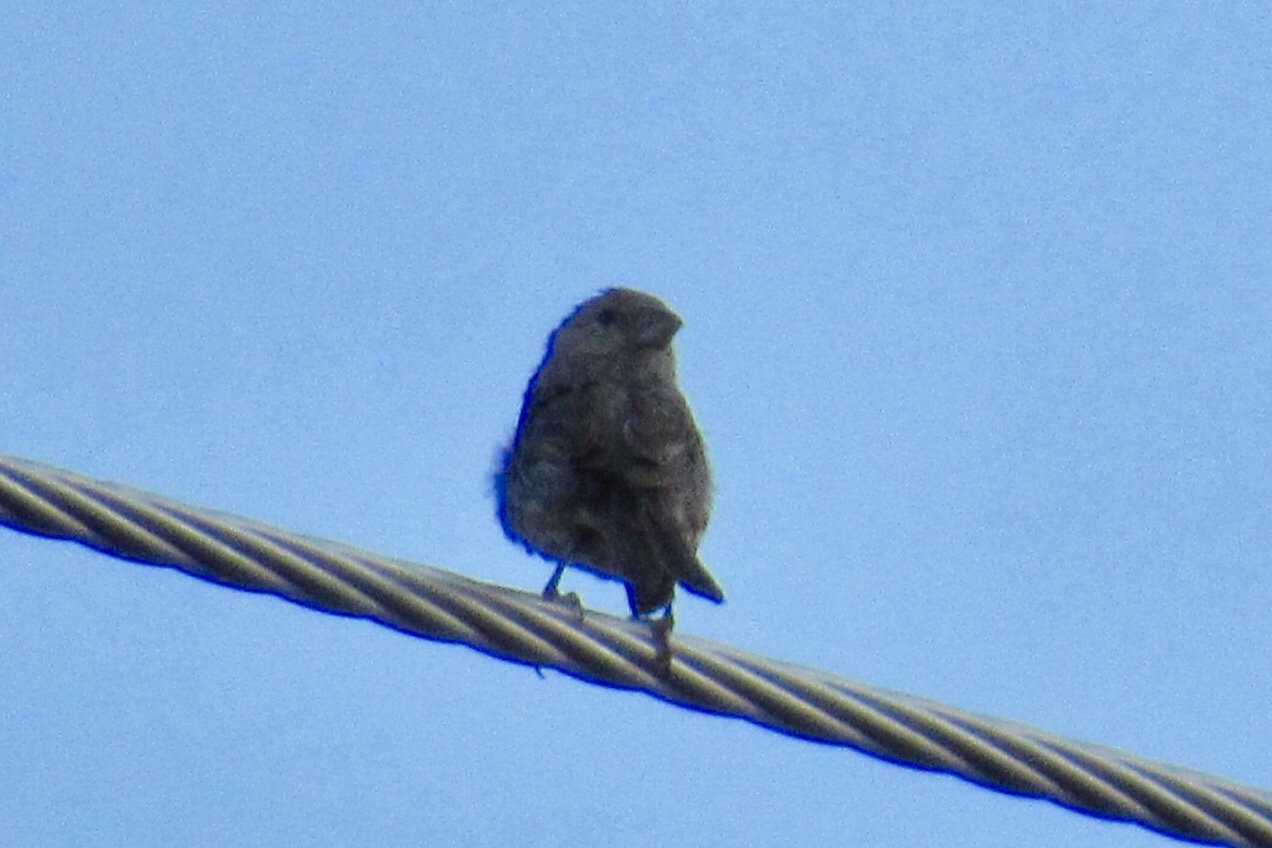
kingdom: Animalia
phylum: Chordata
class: Aves
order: Passeriformes
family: Fringillidae
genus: Haemorhous
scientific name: Haemorhous mexicanus
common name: House finch
